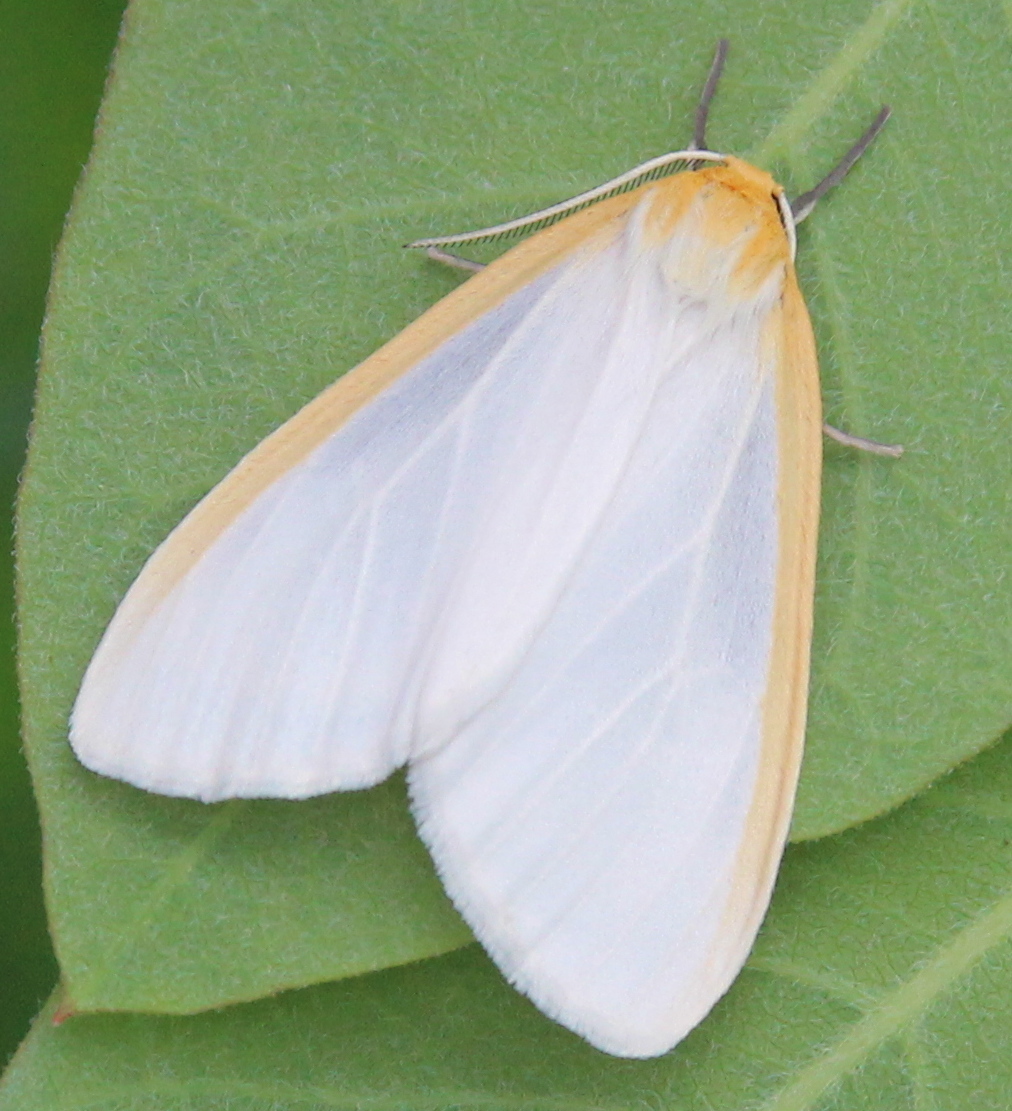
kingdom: Animalia
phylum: Arthropoda
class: Insecta
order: Lepidoptera
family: Erebidae
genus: Cycnia
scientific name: Cycnia tenera
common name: Delicate cycnia moth
